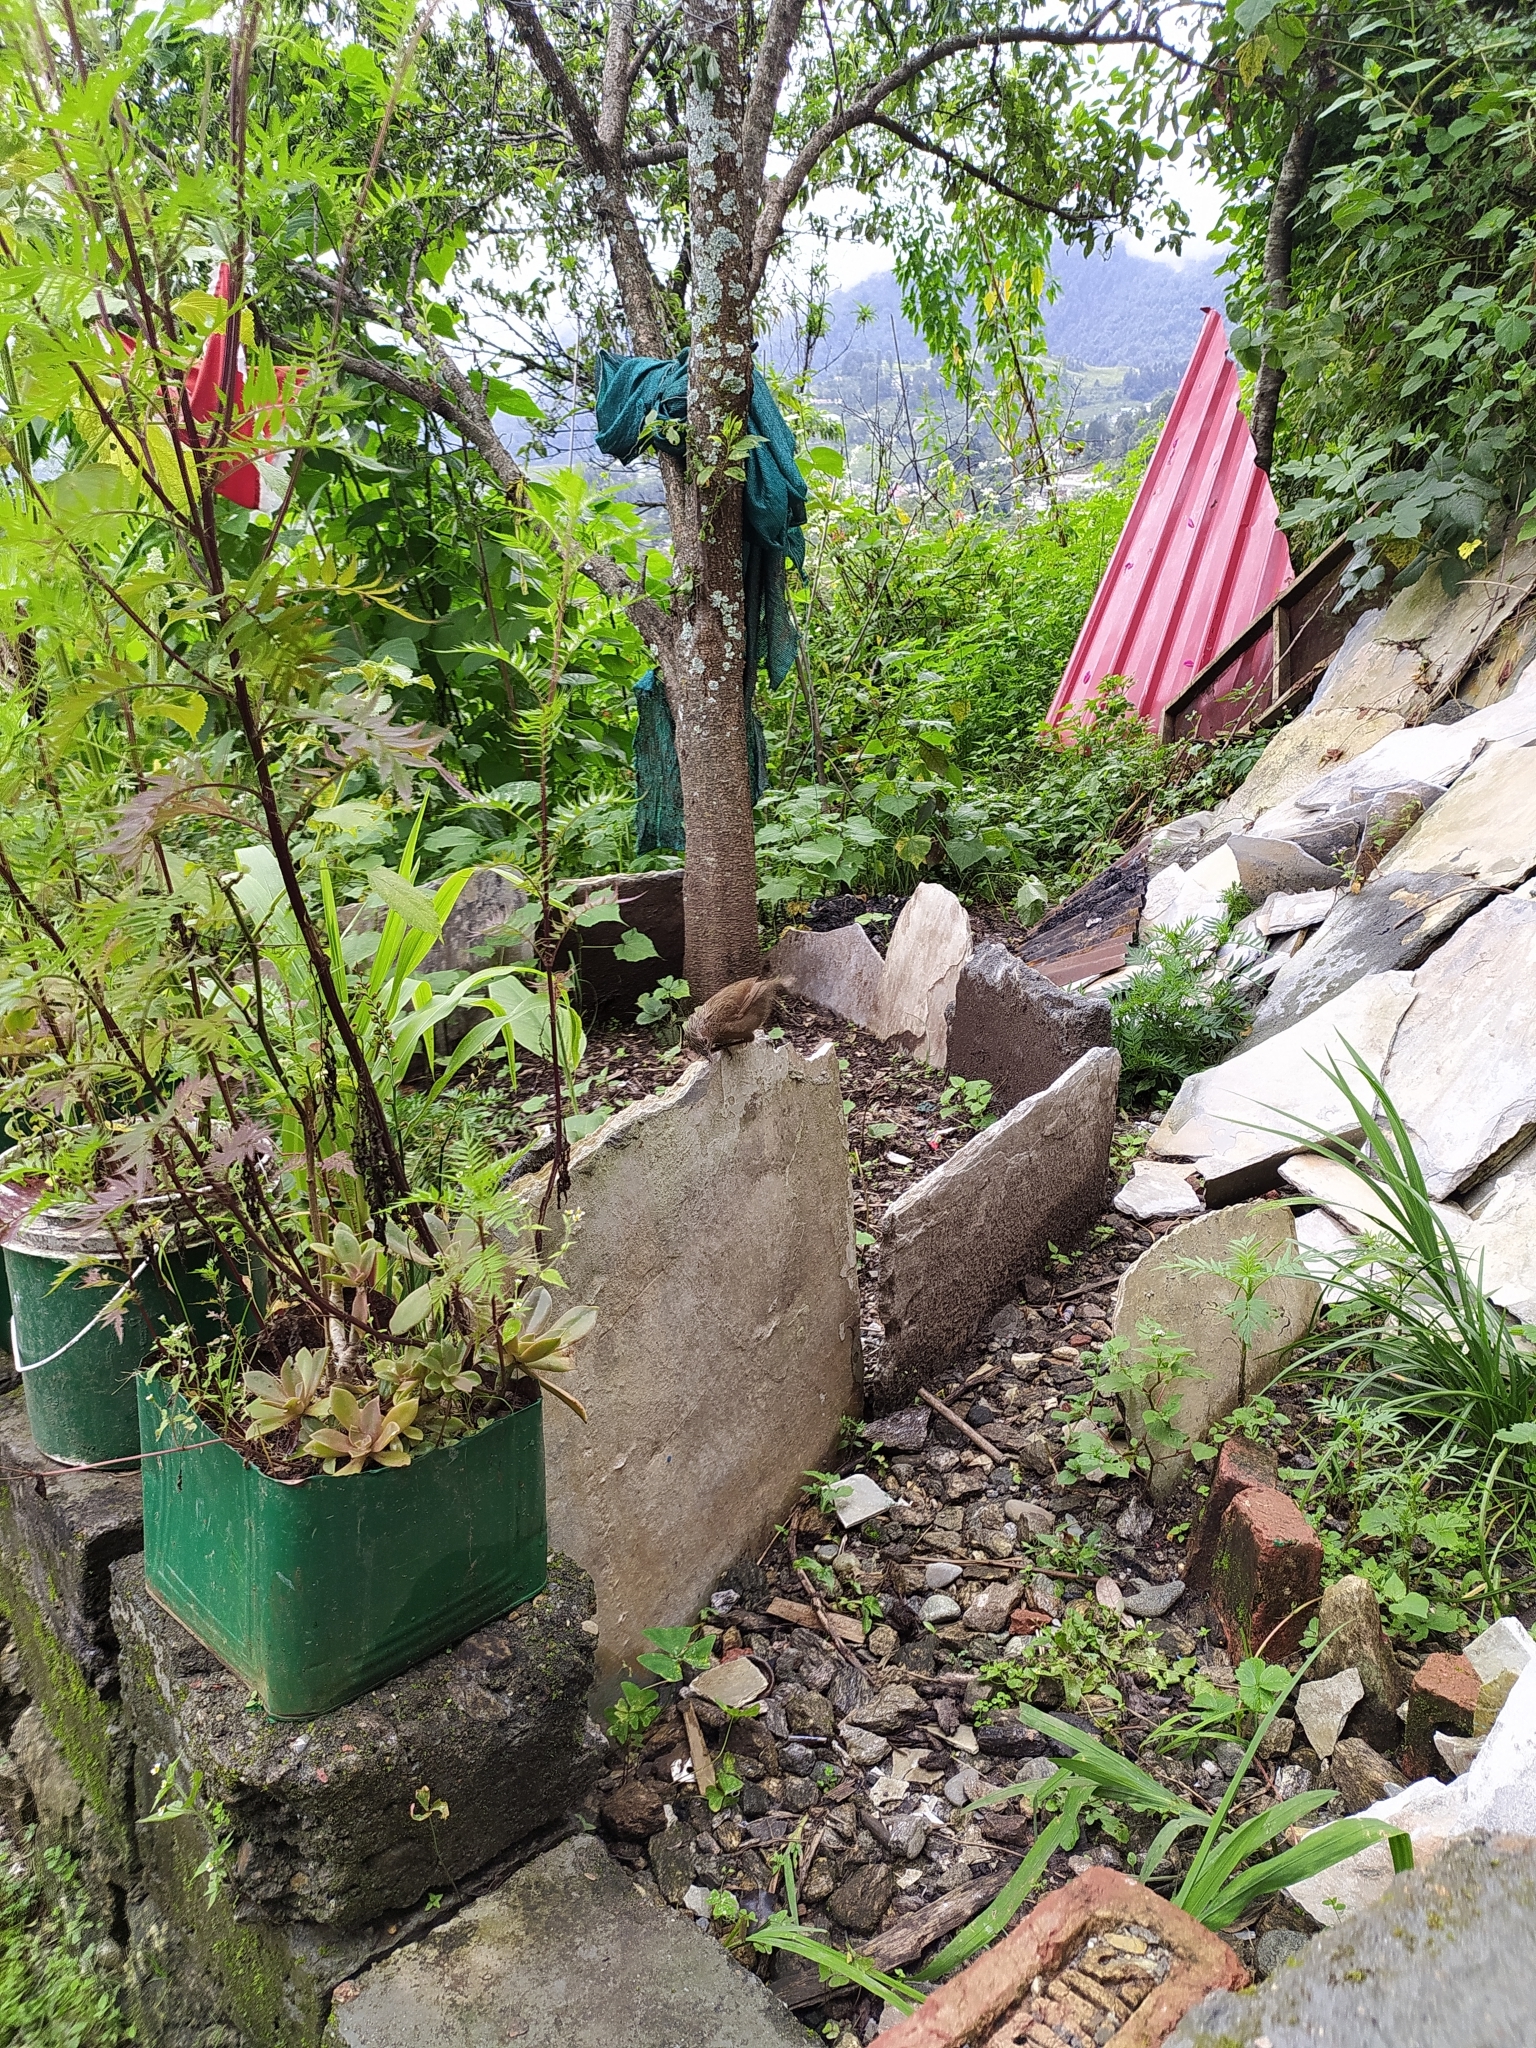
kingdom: Animalia
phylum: Chordata
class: Aves
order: Passeriformes
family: Leiothrichidae
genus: Trochalopteron
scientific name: Trochalopteron lineatum
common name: Streaked laughingthrush
